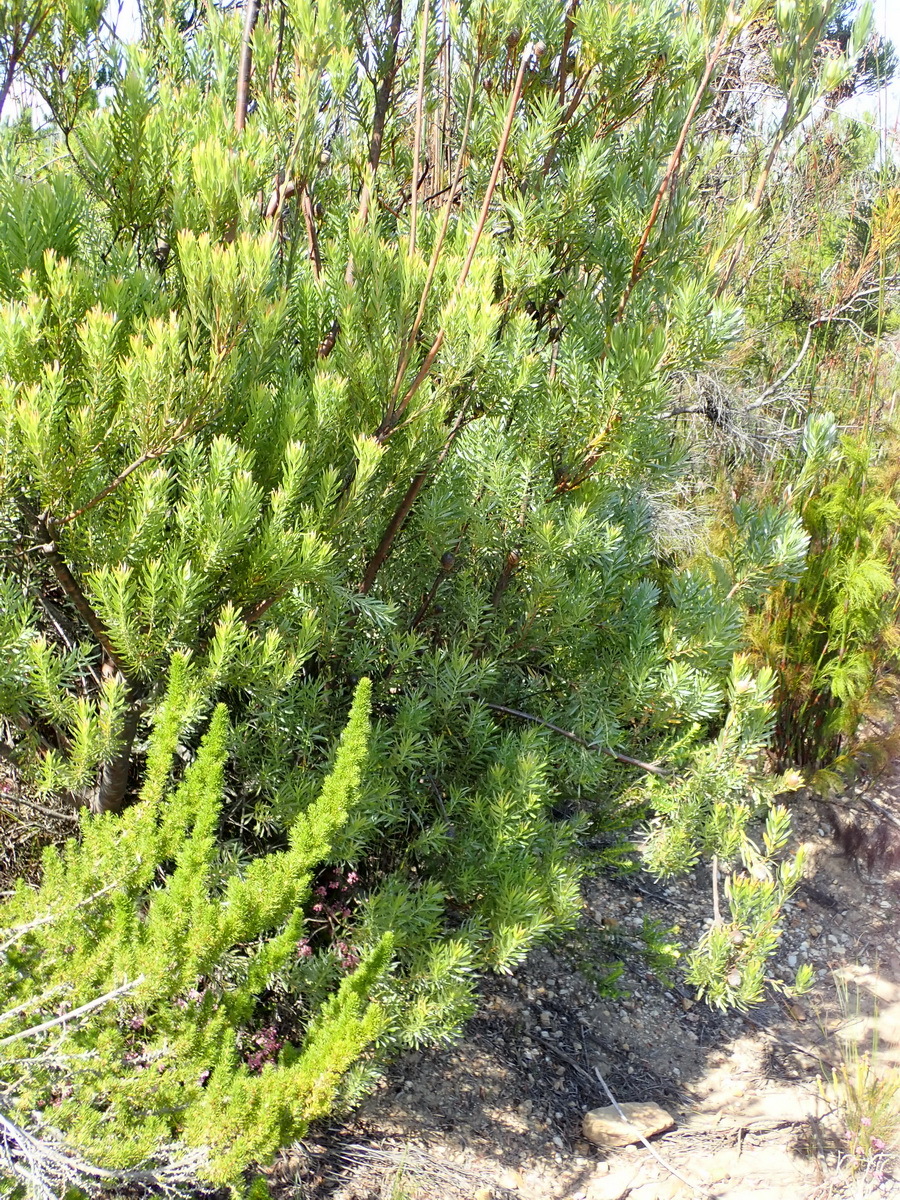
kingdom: Plantae
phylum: Tracheophyta
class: Magnoliopsida
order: Proteales
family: Proteaceae
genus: Leucadendron
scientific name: Leucadendron uliginosum
